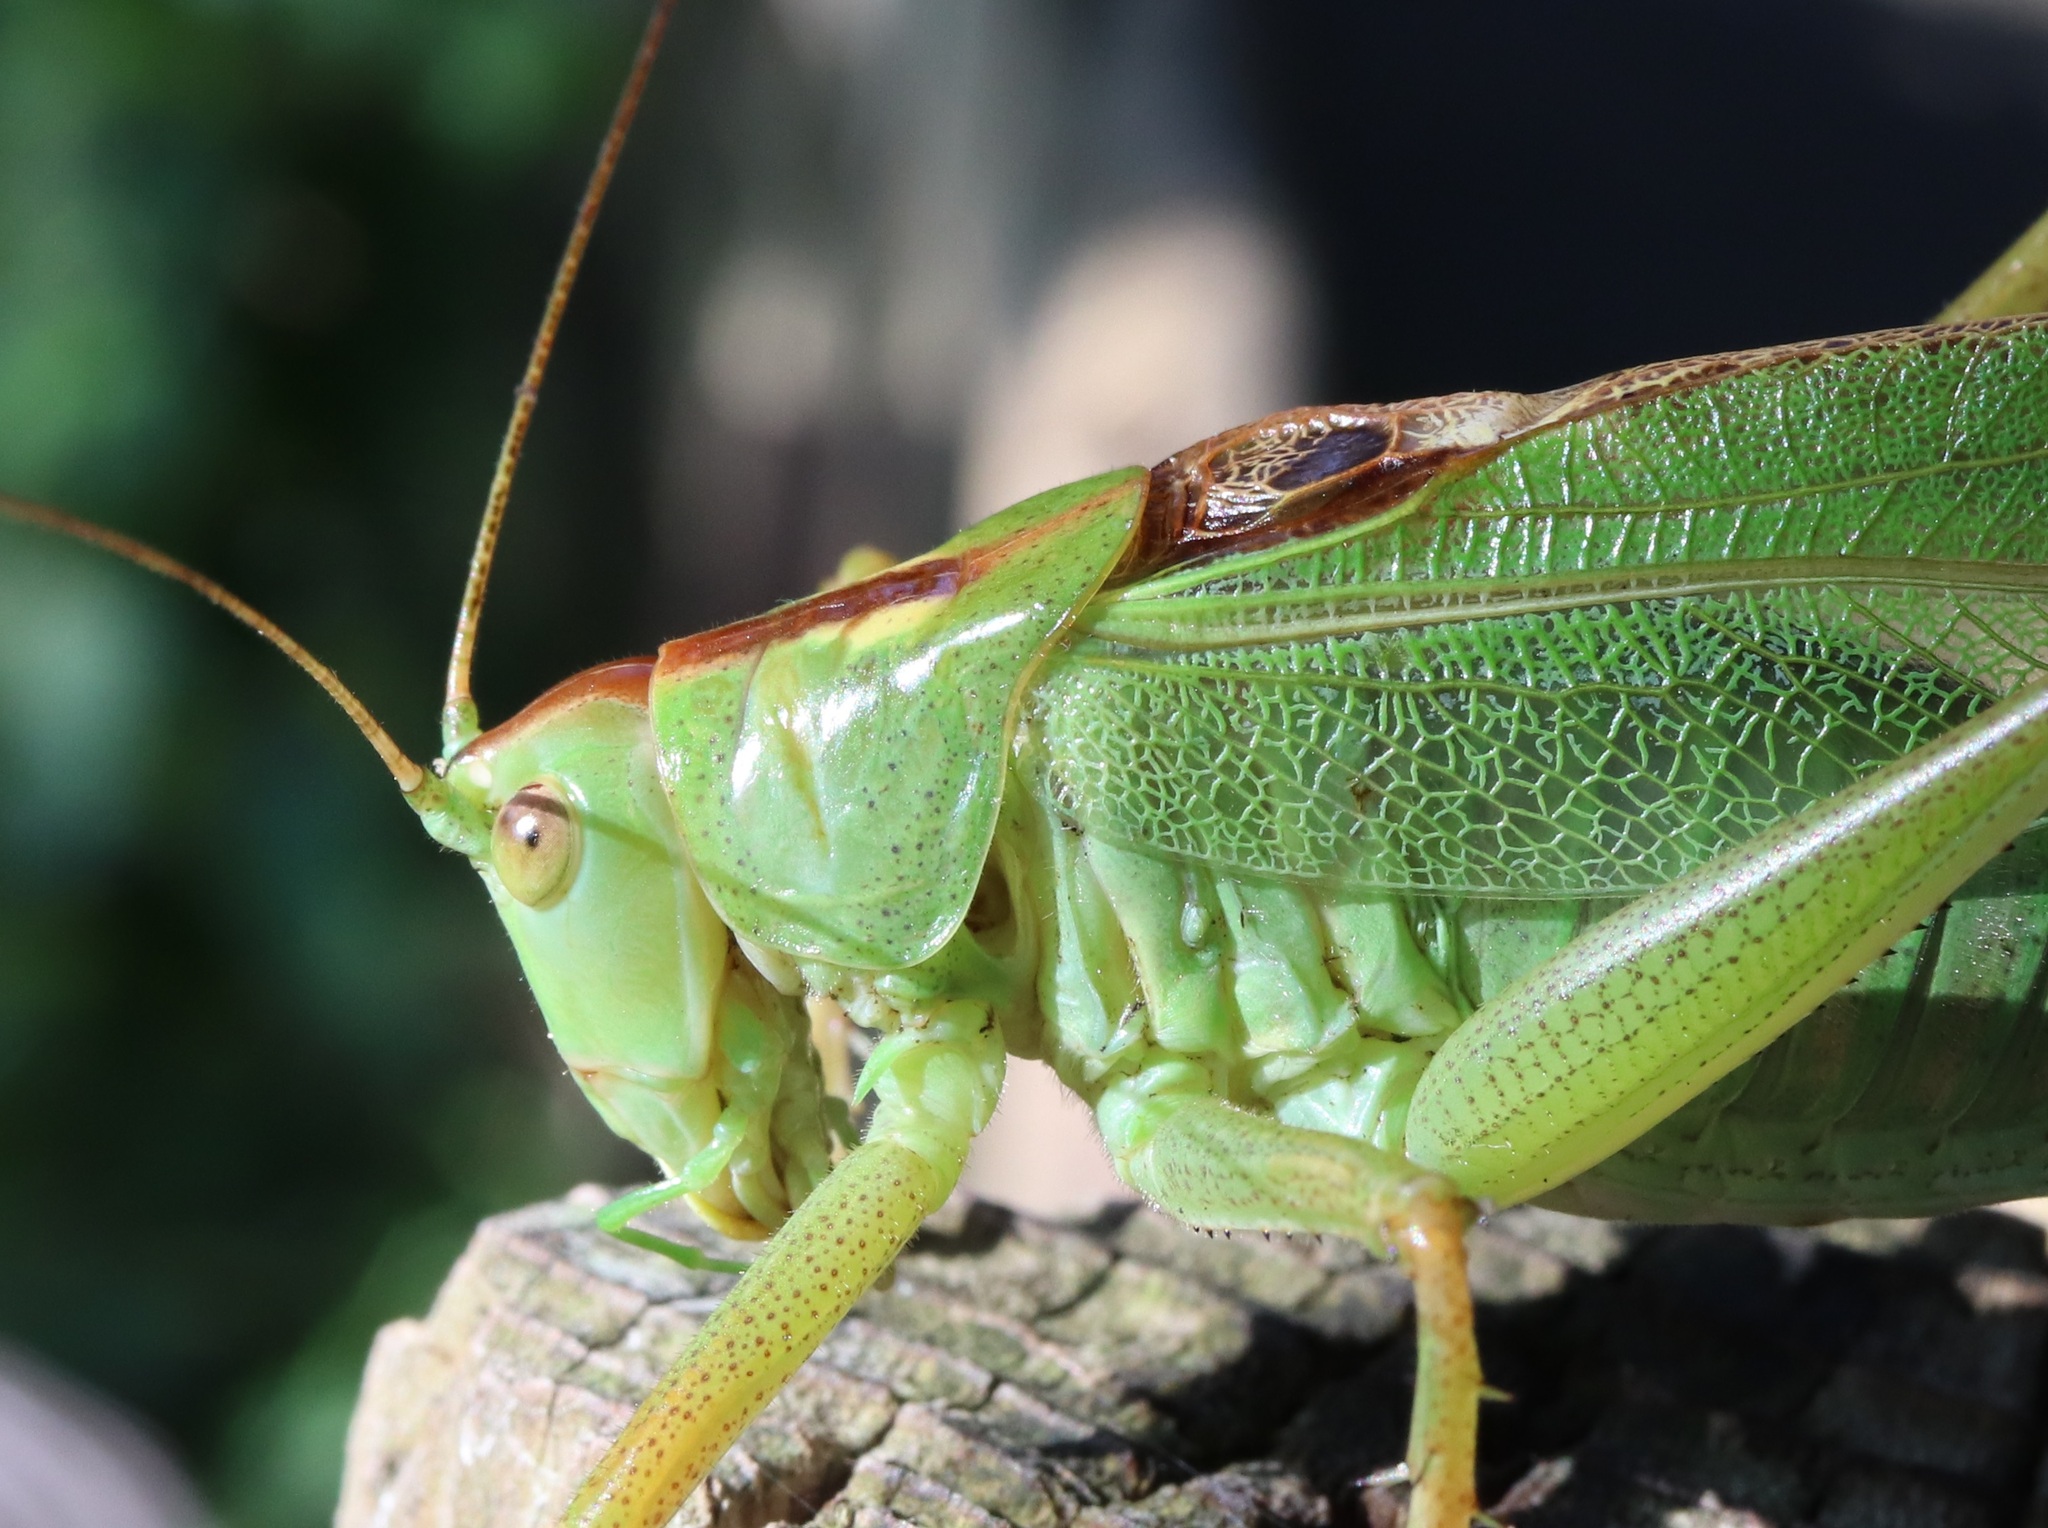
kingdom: Animalia
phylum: Arthropoda
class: Insecta
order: Orthoptera
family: Tettigoniidae
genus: Tettigonia
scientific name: Tettigonia orientalis
